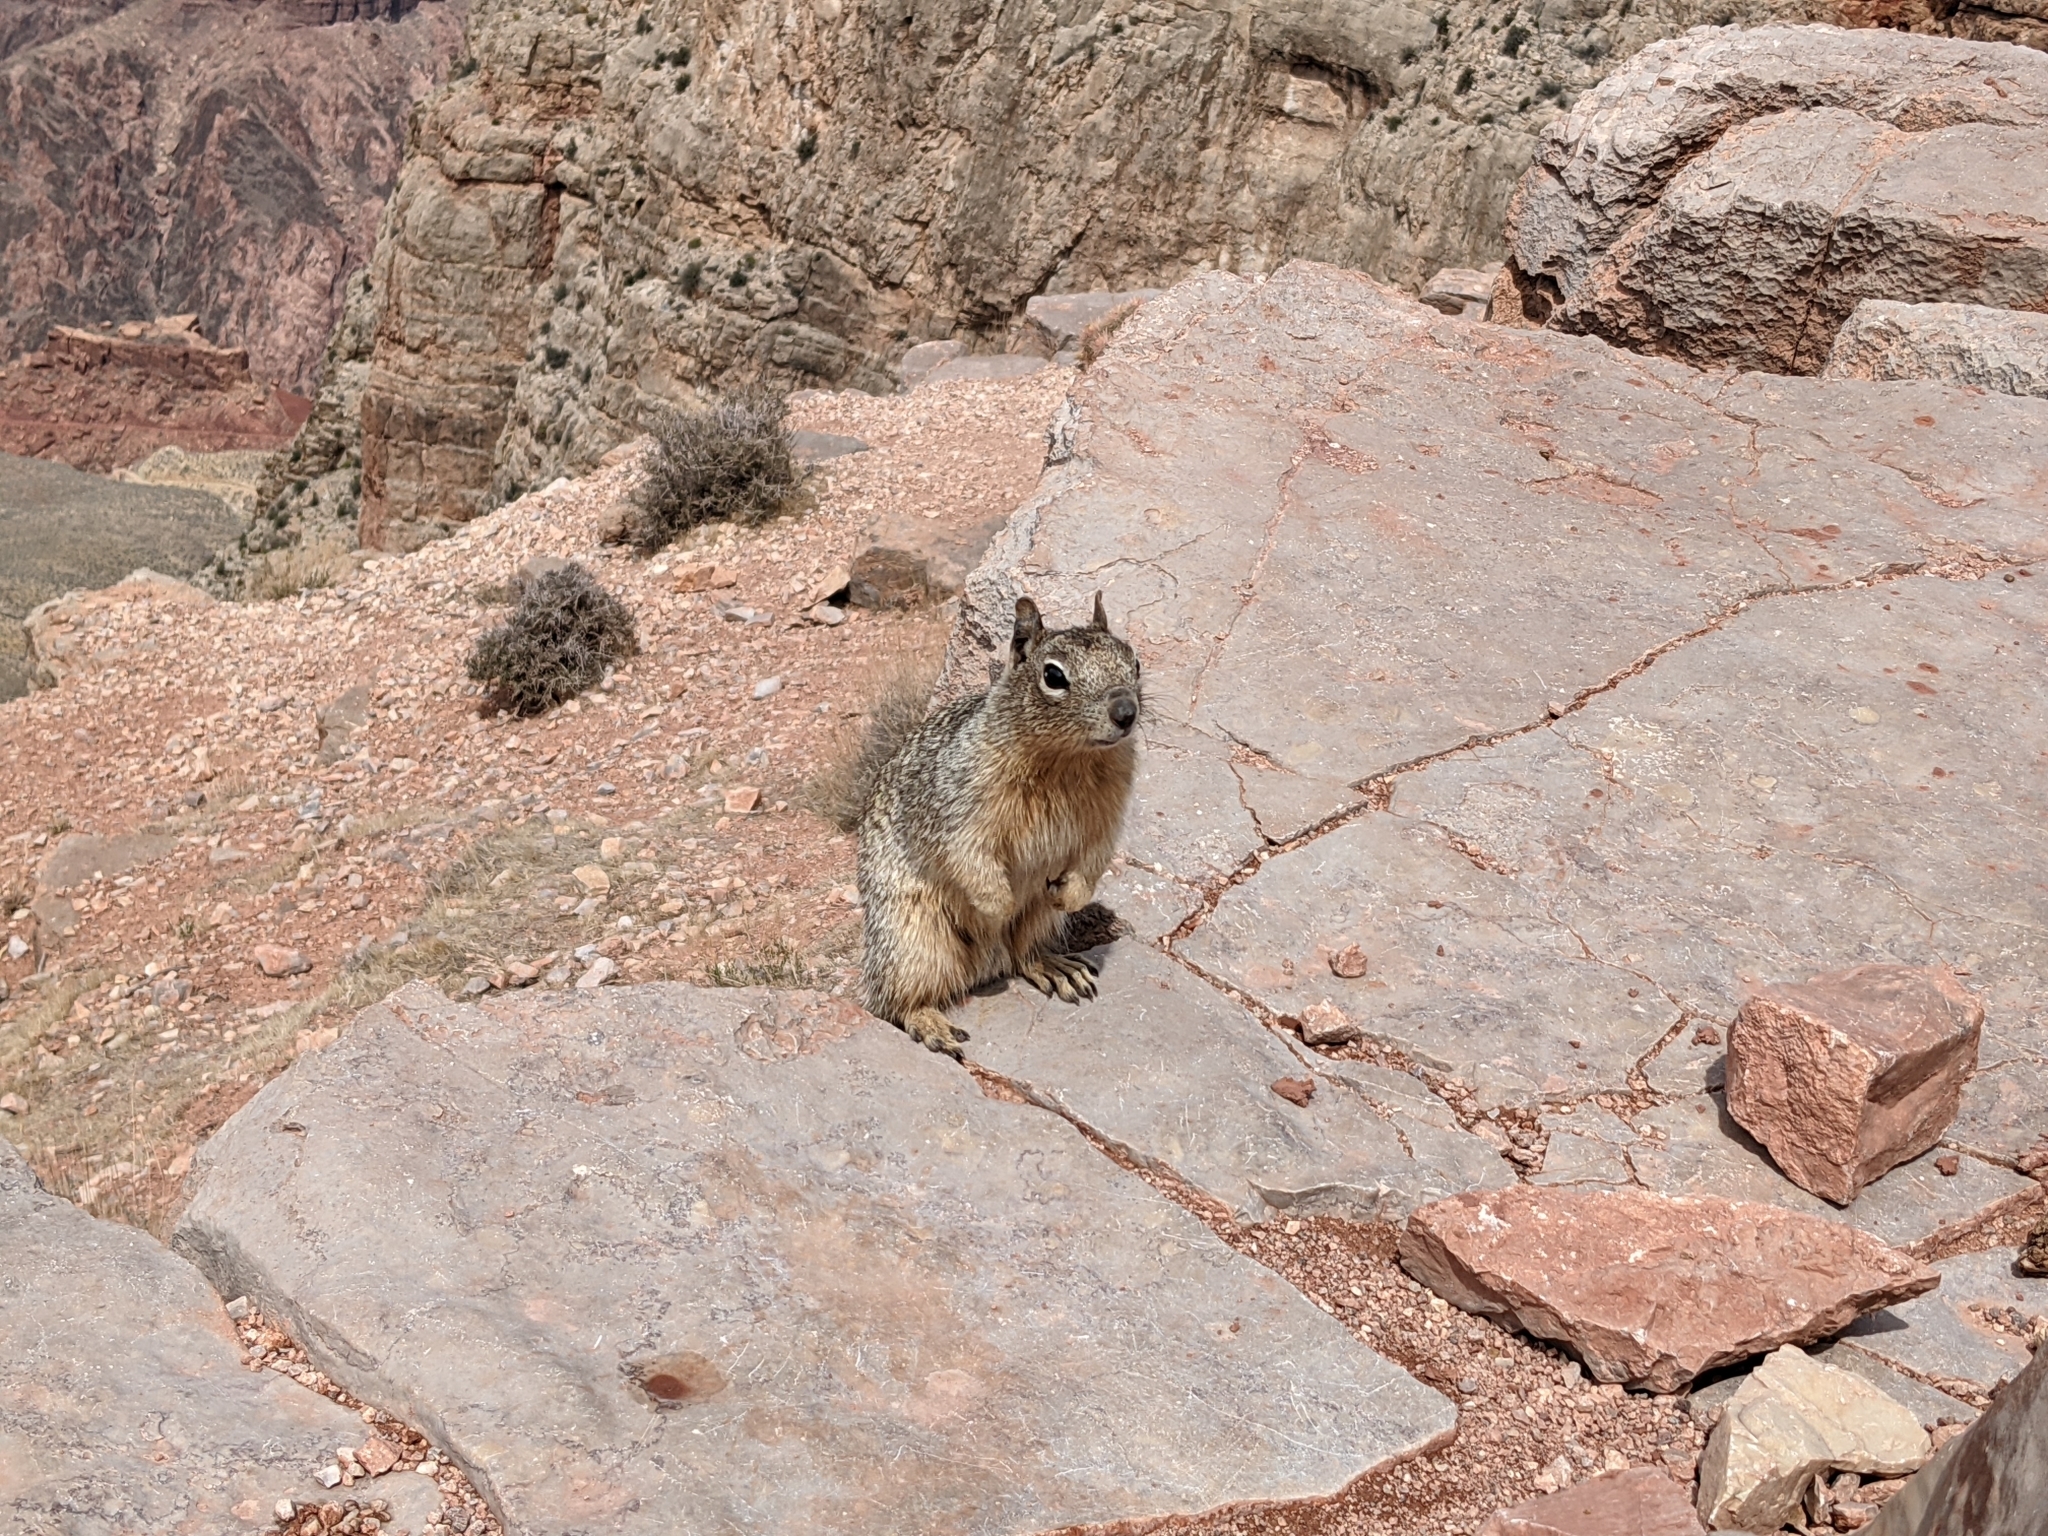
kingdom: Animalia
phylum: Chordata
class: Mammalia
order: Rodentia
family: Sciuridae
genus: Otospermophilus
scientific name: Otospermophilus variegatus
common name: Rock squirrel
